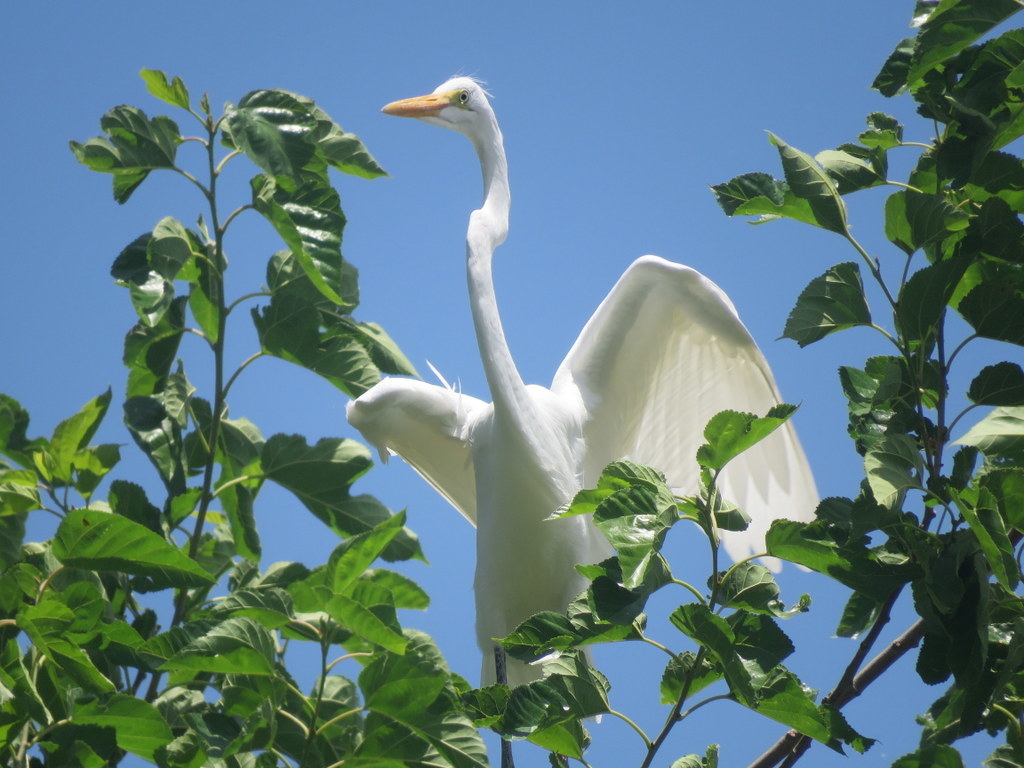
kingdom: Animalia
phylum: Chordata
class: Aves
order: Pelecaniformes
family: Ardeidae
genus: Ardea
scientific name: Ardea alba
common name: Great egret
